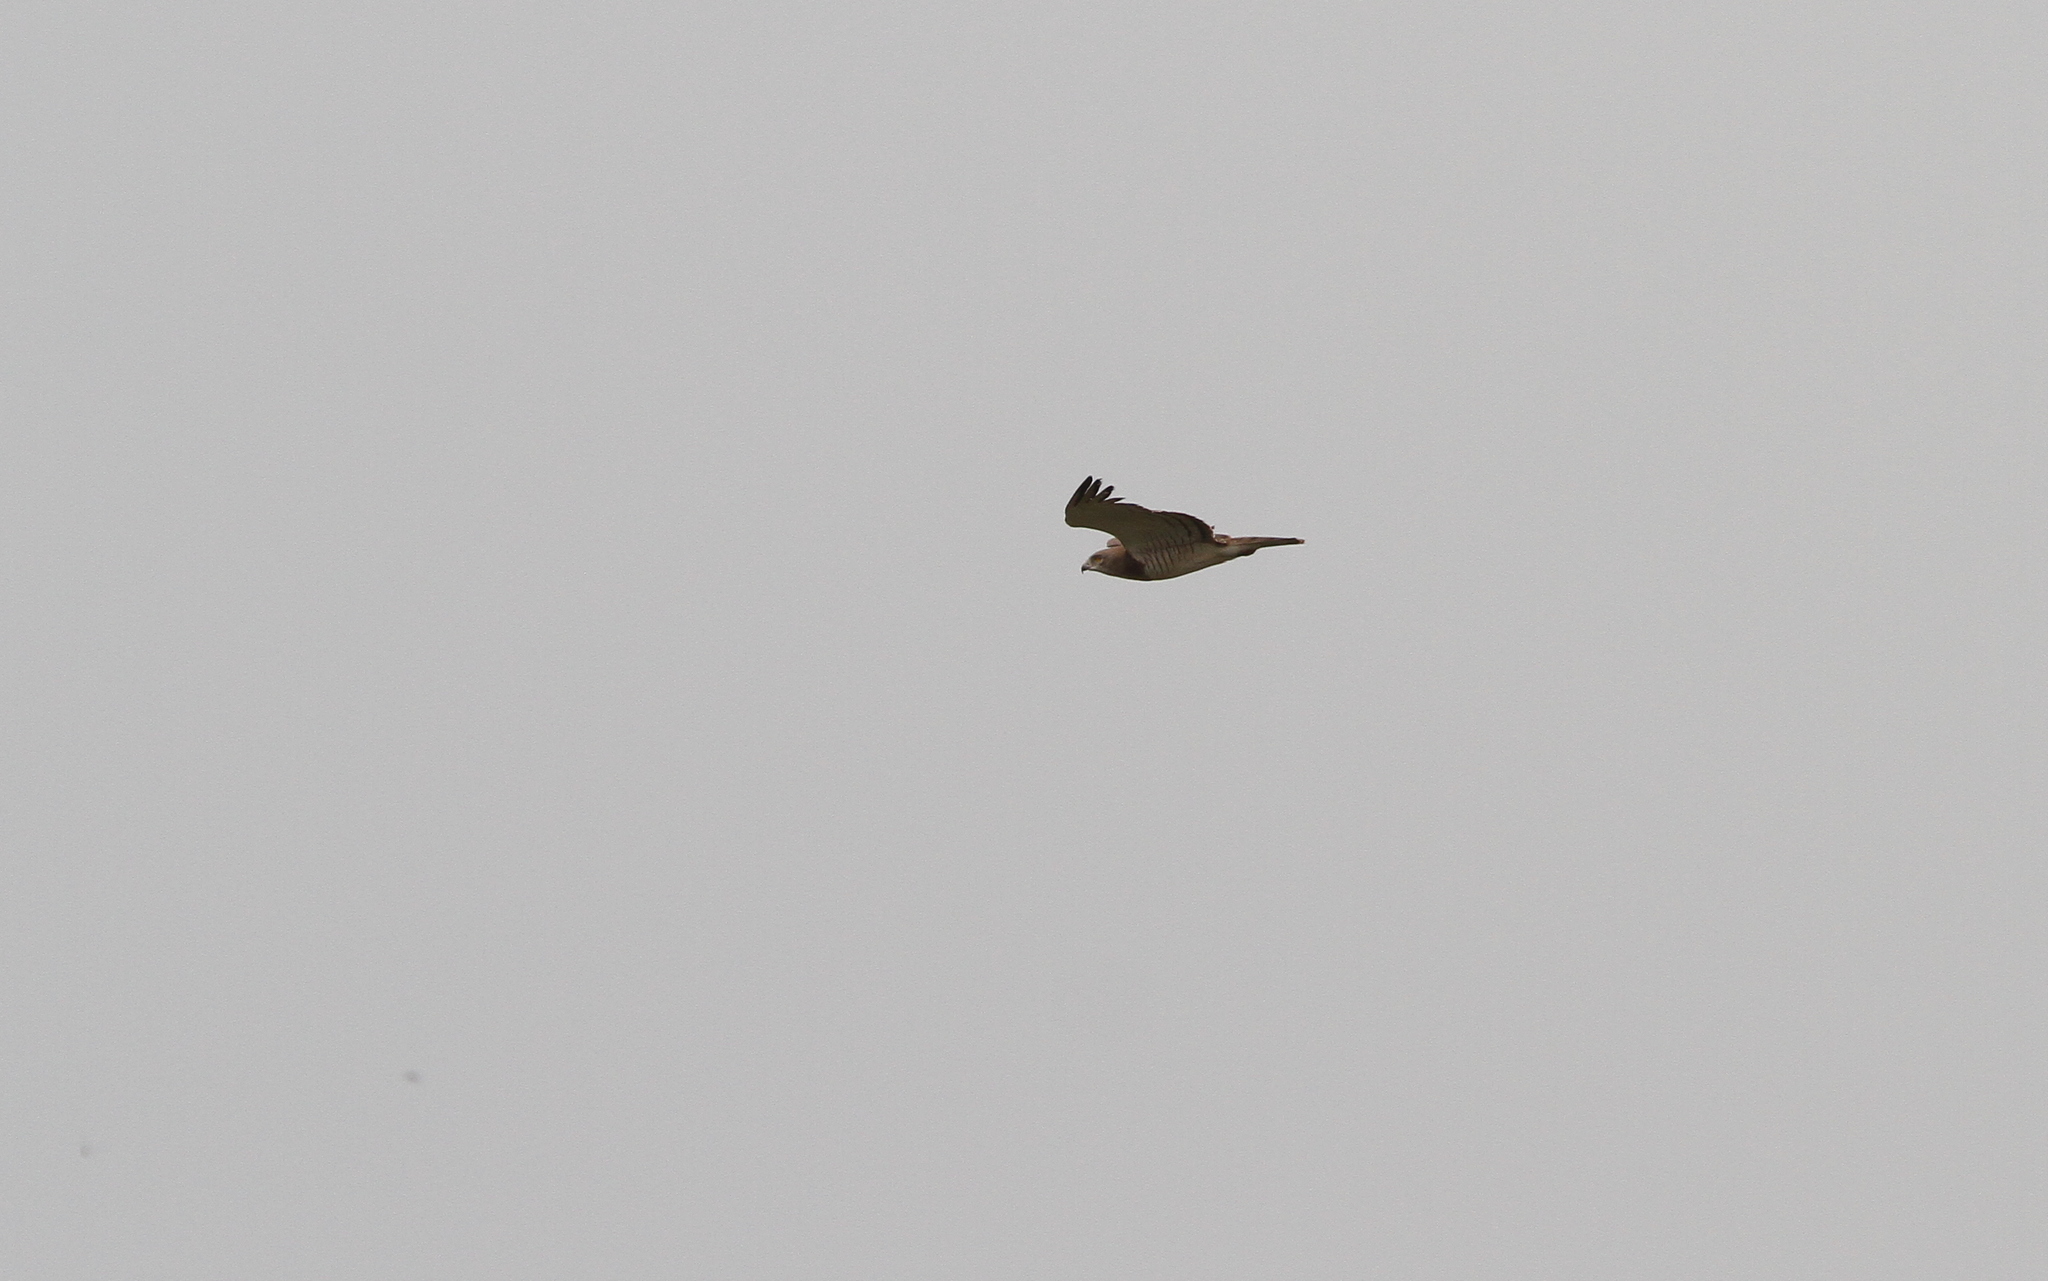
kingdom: Animalia
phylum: Chordata
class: Aves
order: Accipitriformes
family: Accipitridae
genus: Circaetus
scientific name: Circaetus beaudouini
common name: Beaudouin's snake eagle
